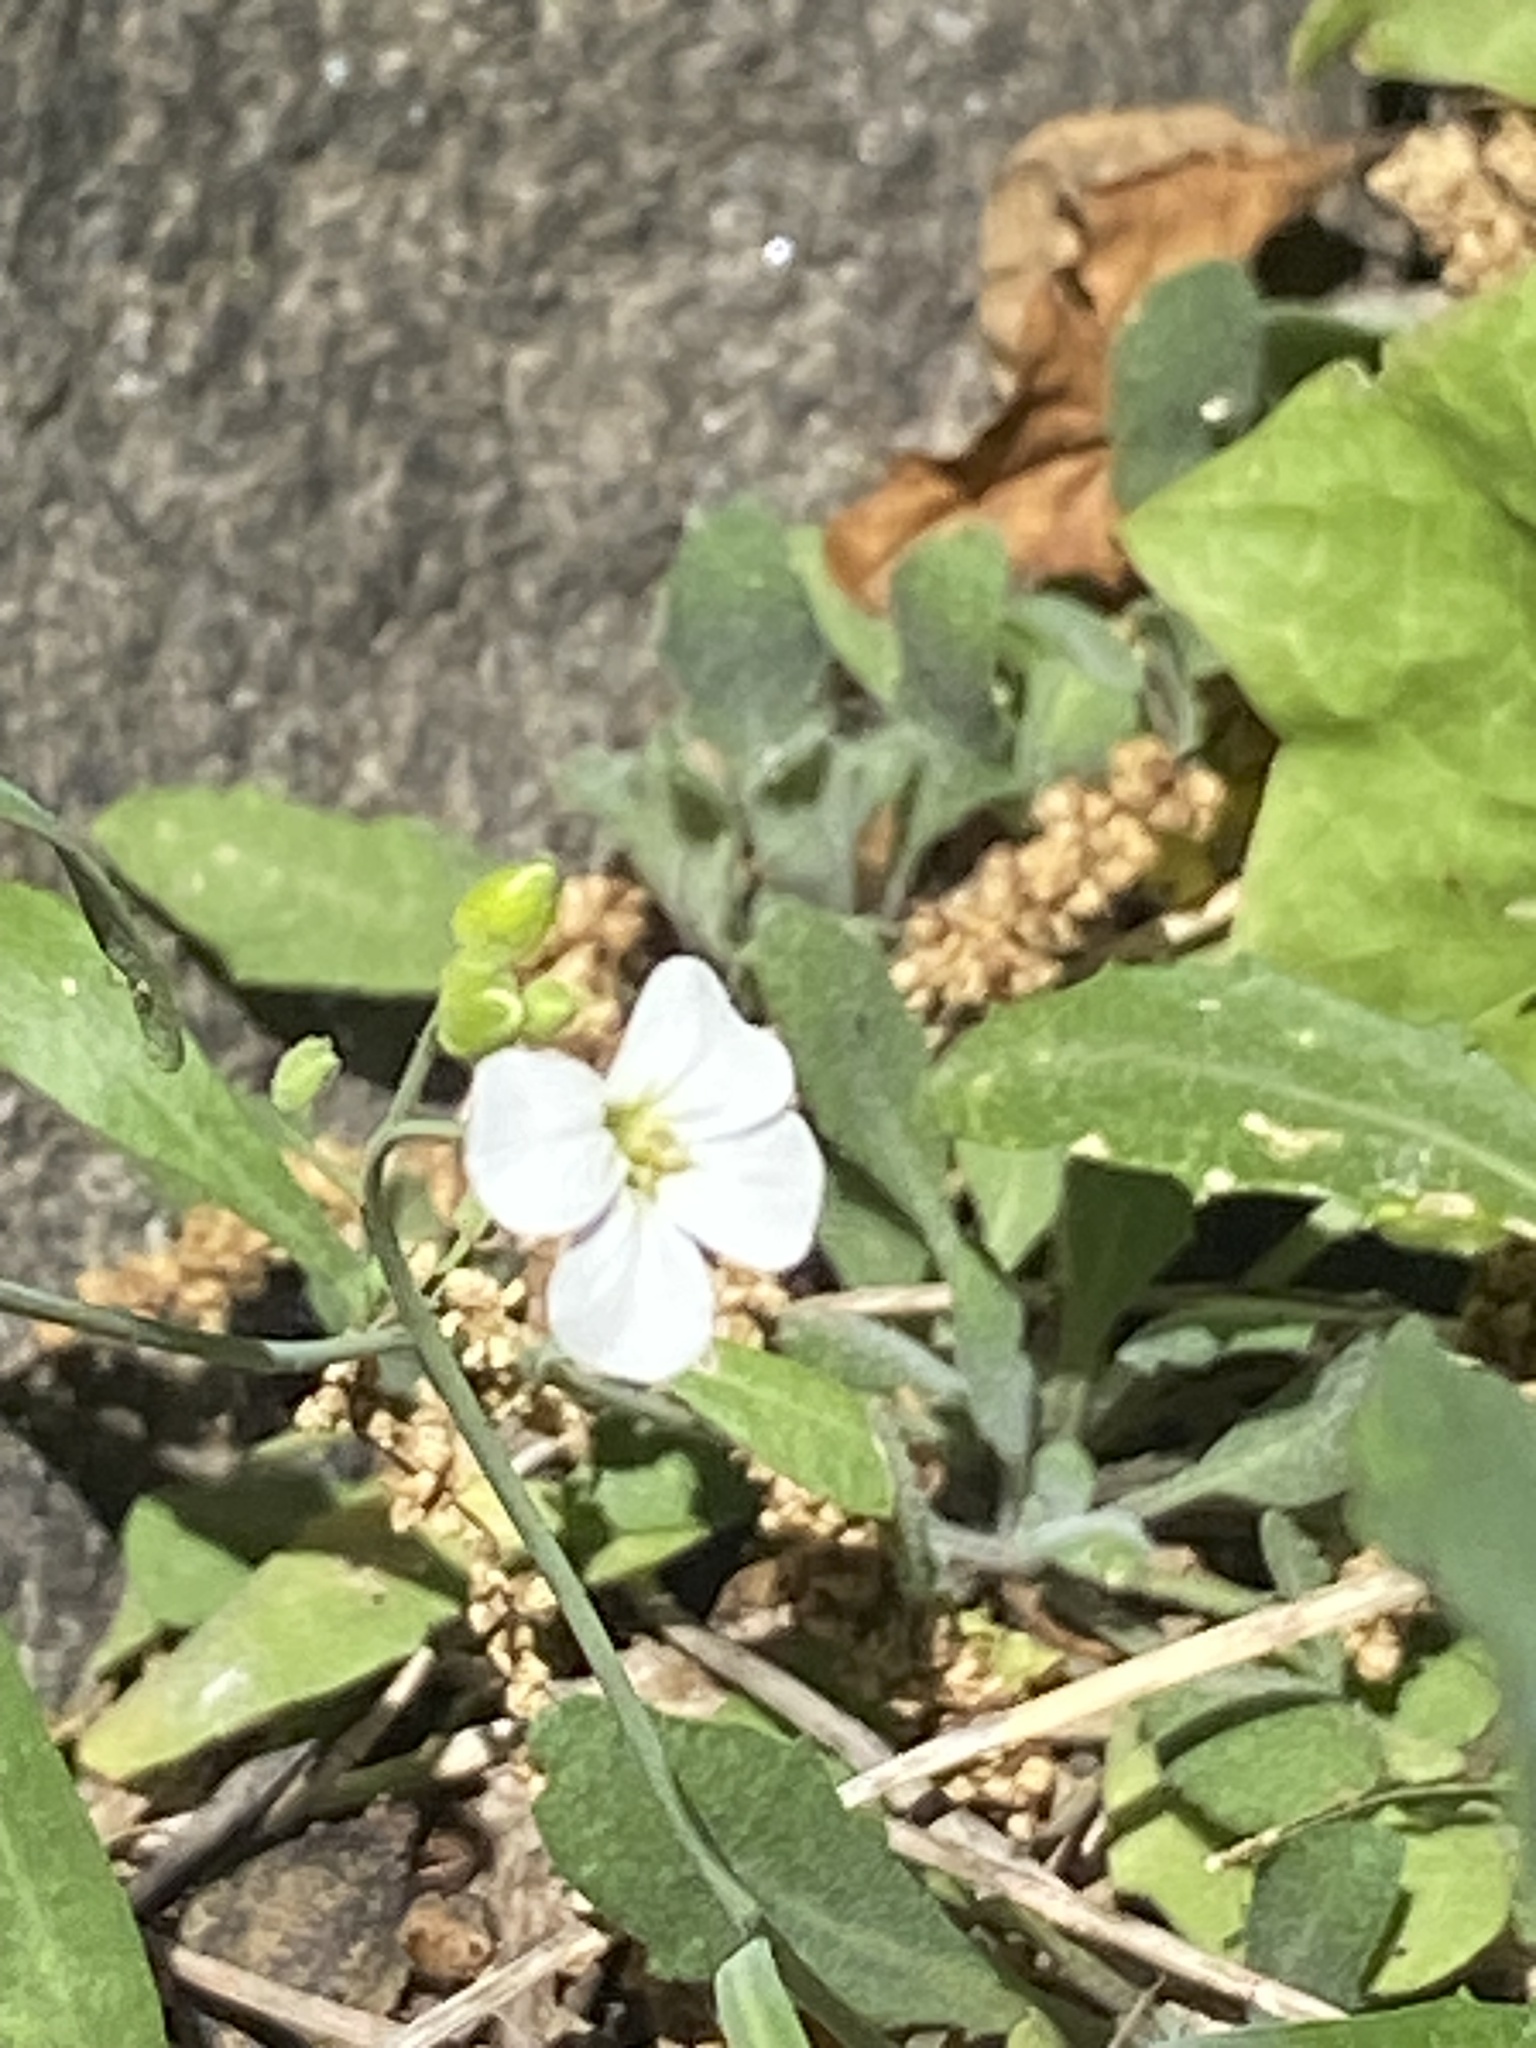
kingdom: Plantae
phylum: Tracheophyta
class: Magnoliopsida
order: Brassicales
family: Brassicaceae
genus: Arabidopsis
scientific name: Arabidopsis lyrata
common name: Lyrate rockcress
